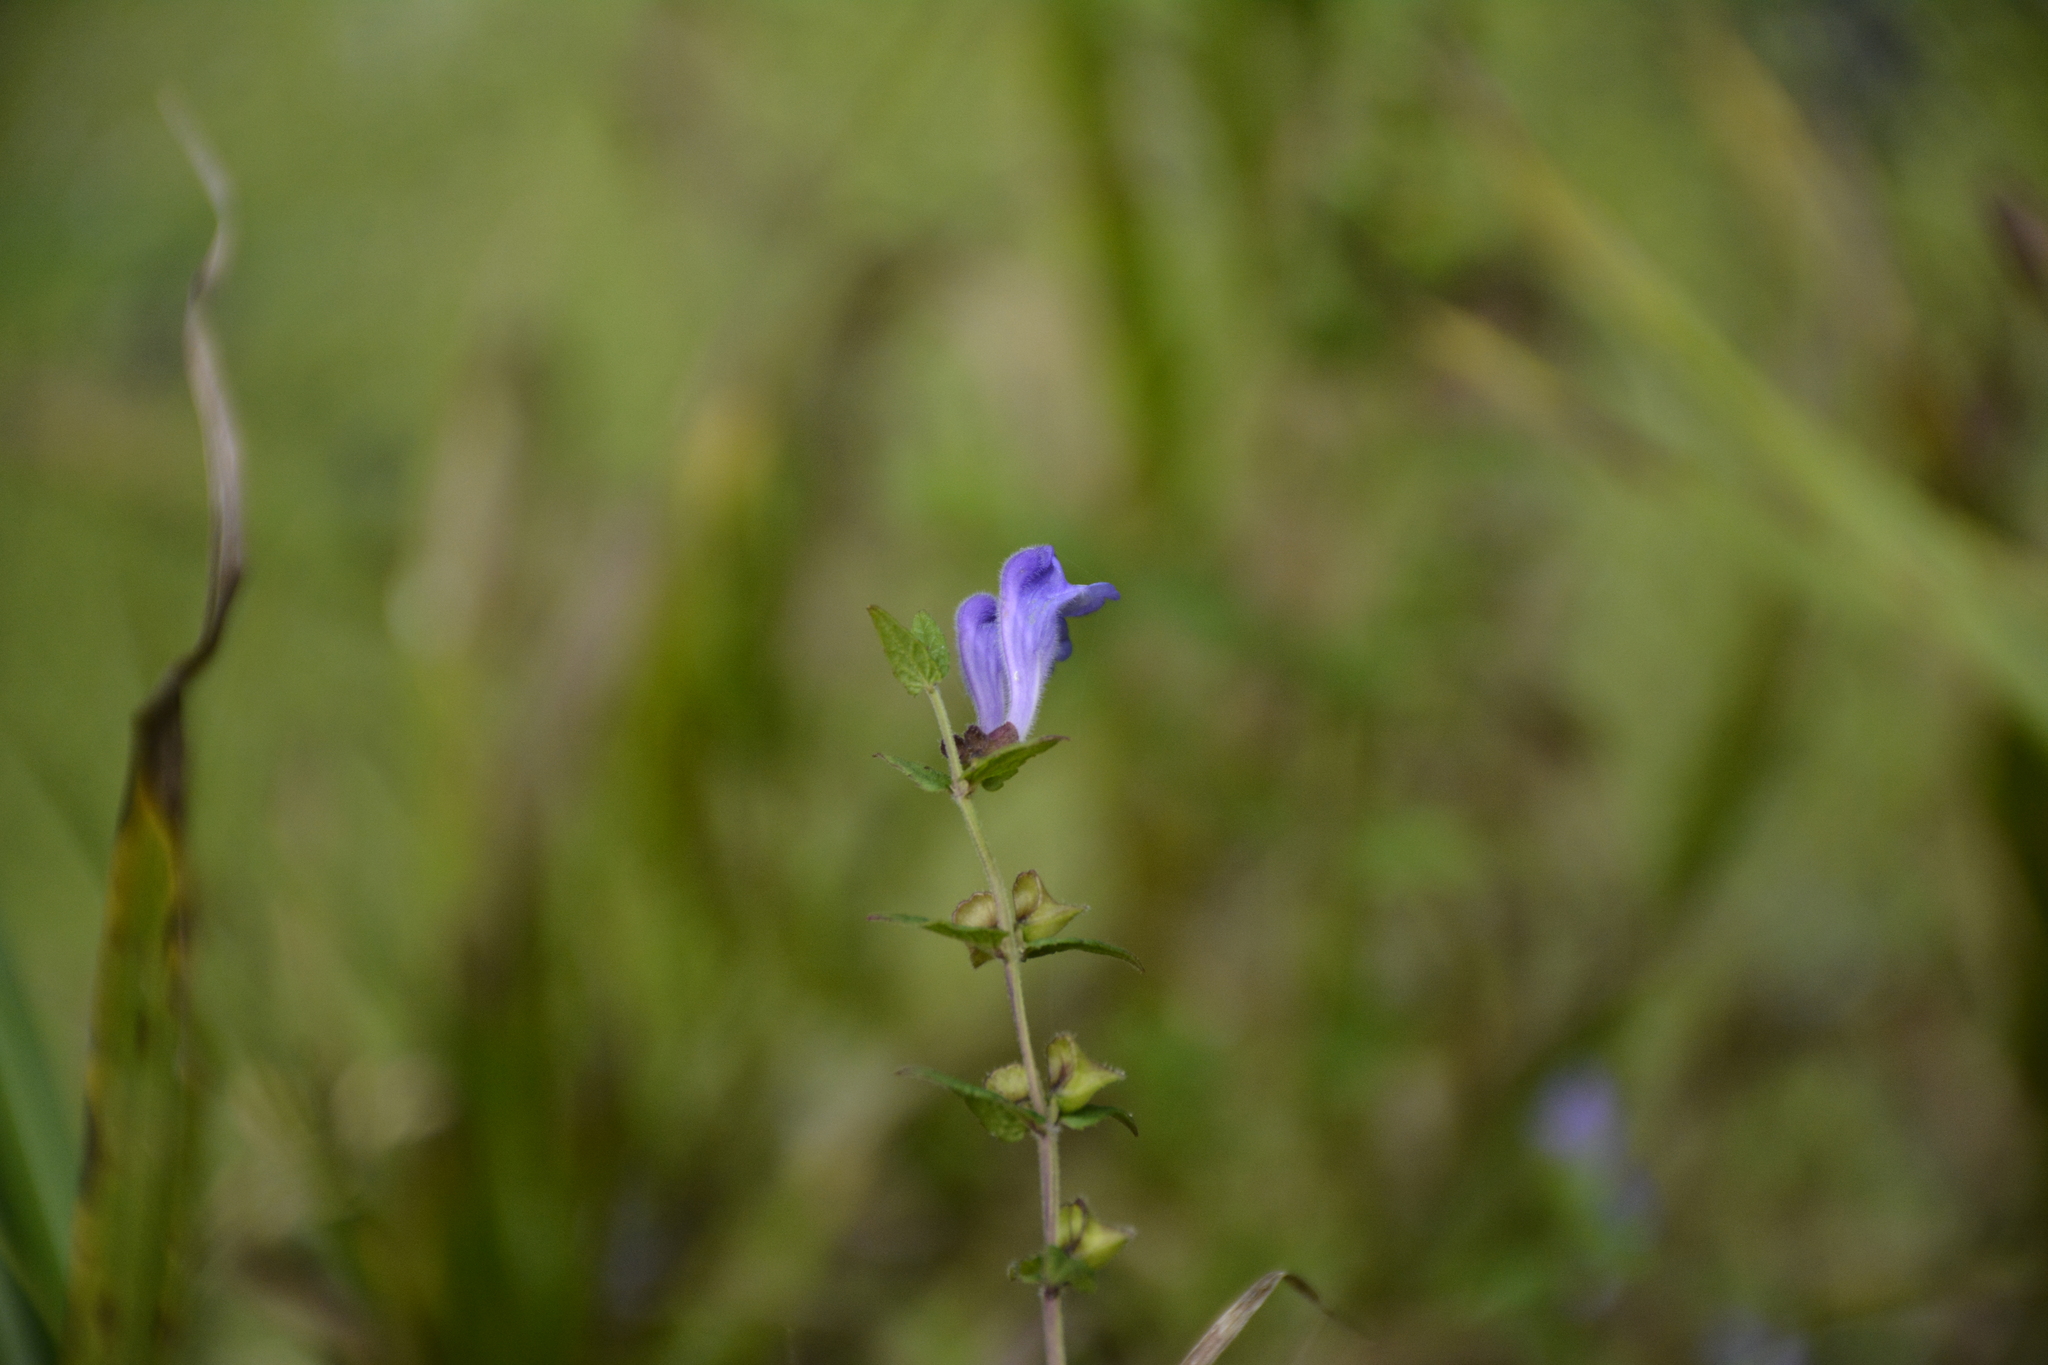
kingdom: Plantae
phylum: Tracheophyta
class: Magnoliopsida
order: Lamiales
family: Lamiaceae
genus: Scutellaria
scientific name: Scutellaria galericulata
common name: Skullcap
